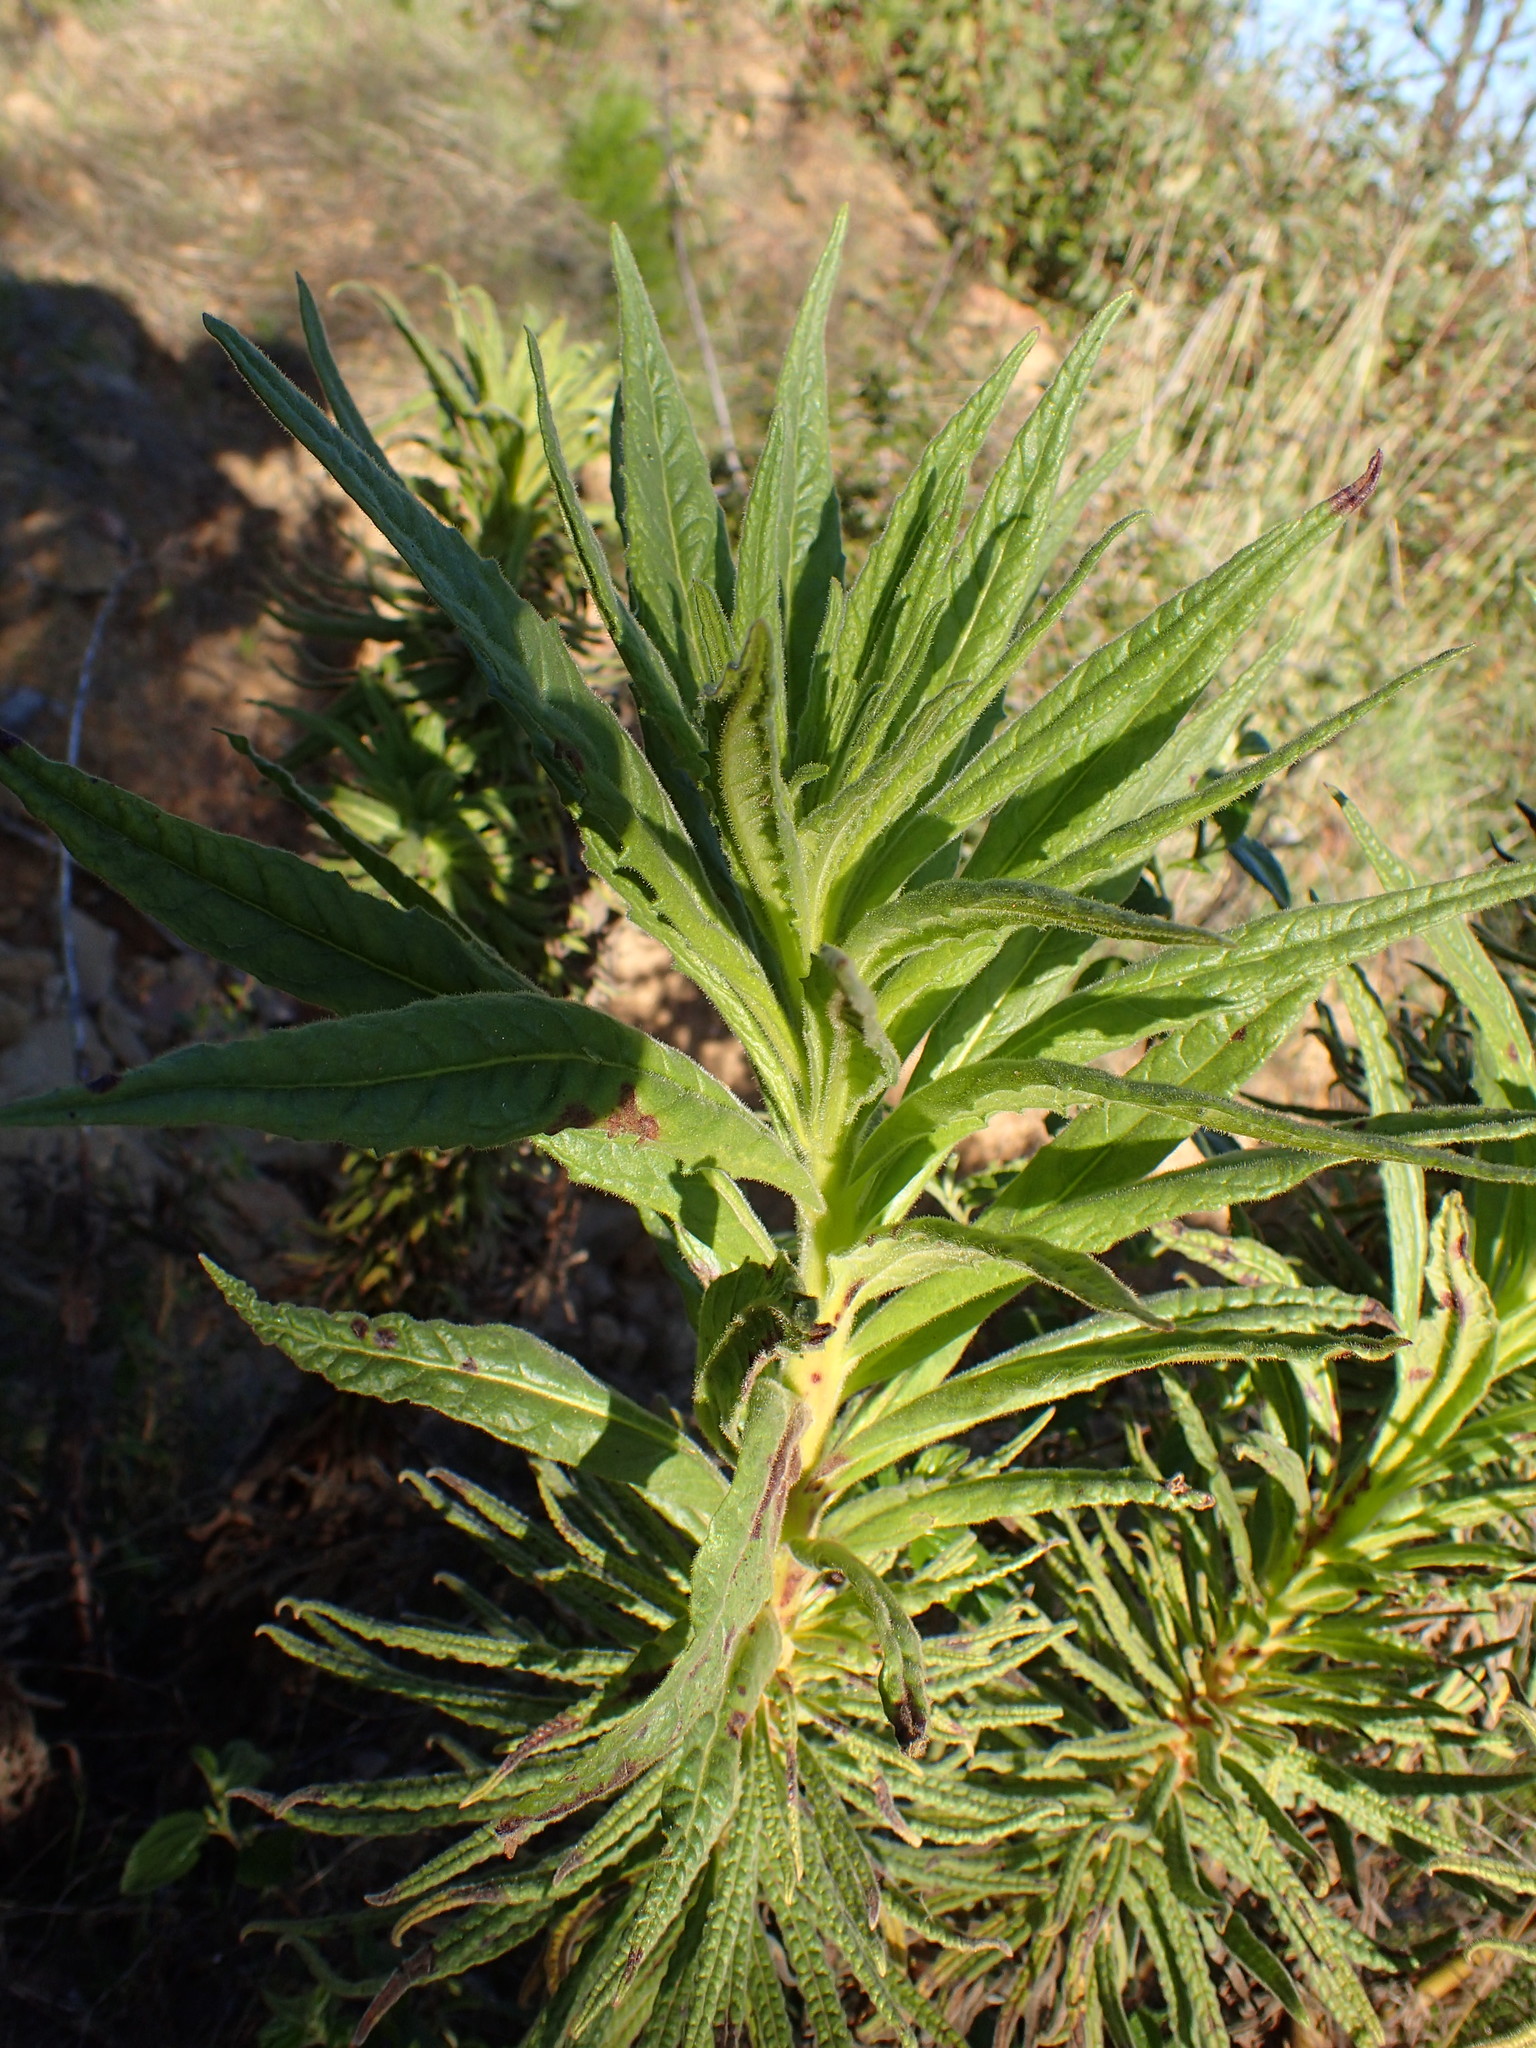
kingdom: Plantae
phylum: Tracheophyta
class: Magnoliopsida
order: Boraginales
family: Namaceae
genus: Turricula
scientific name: Turricula parryi
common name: Poodle-dog-bush
